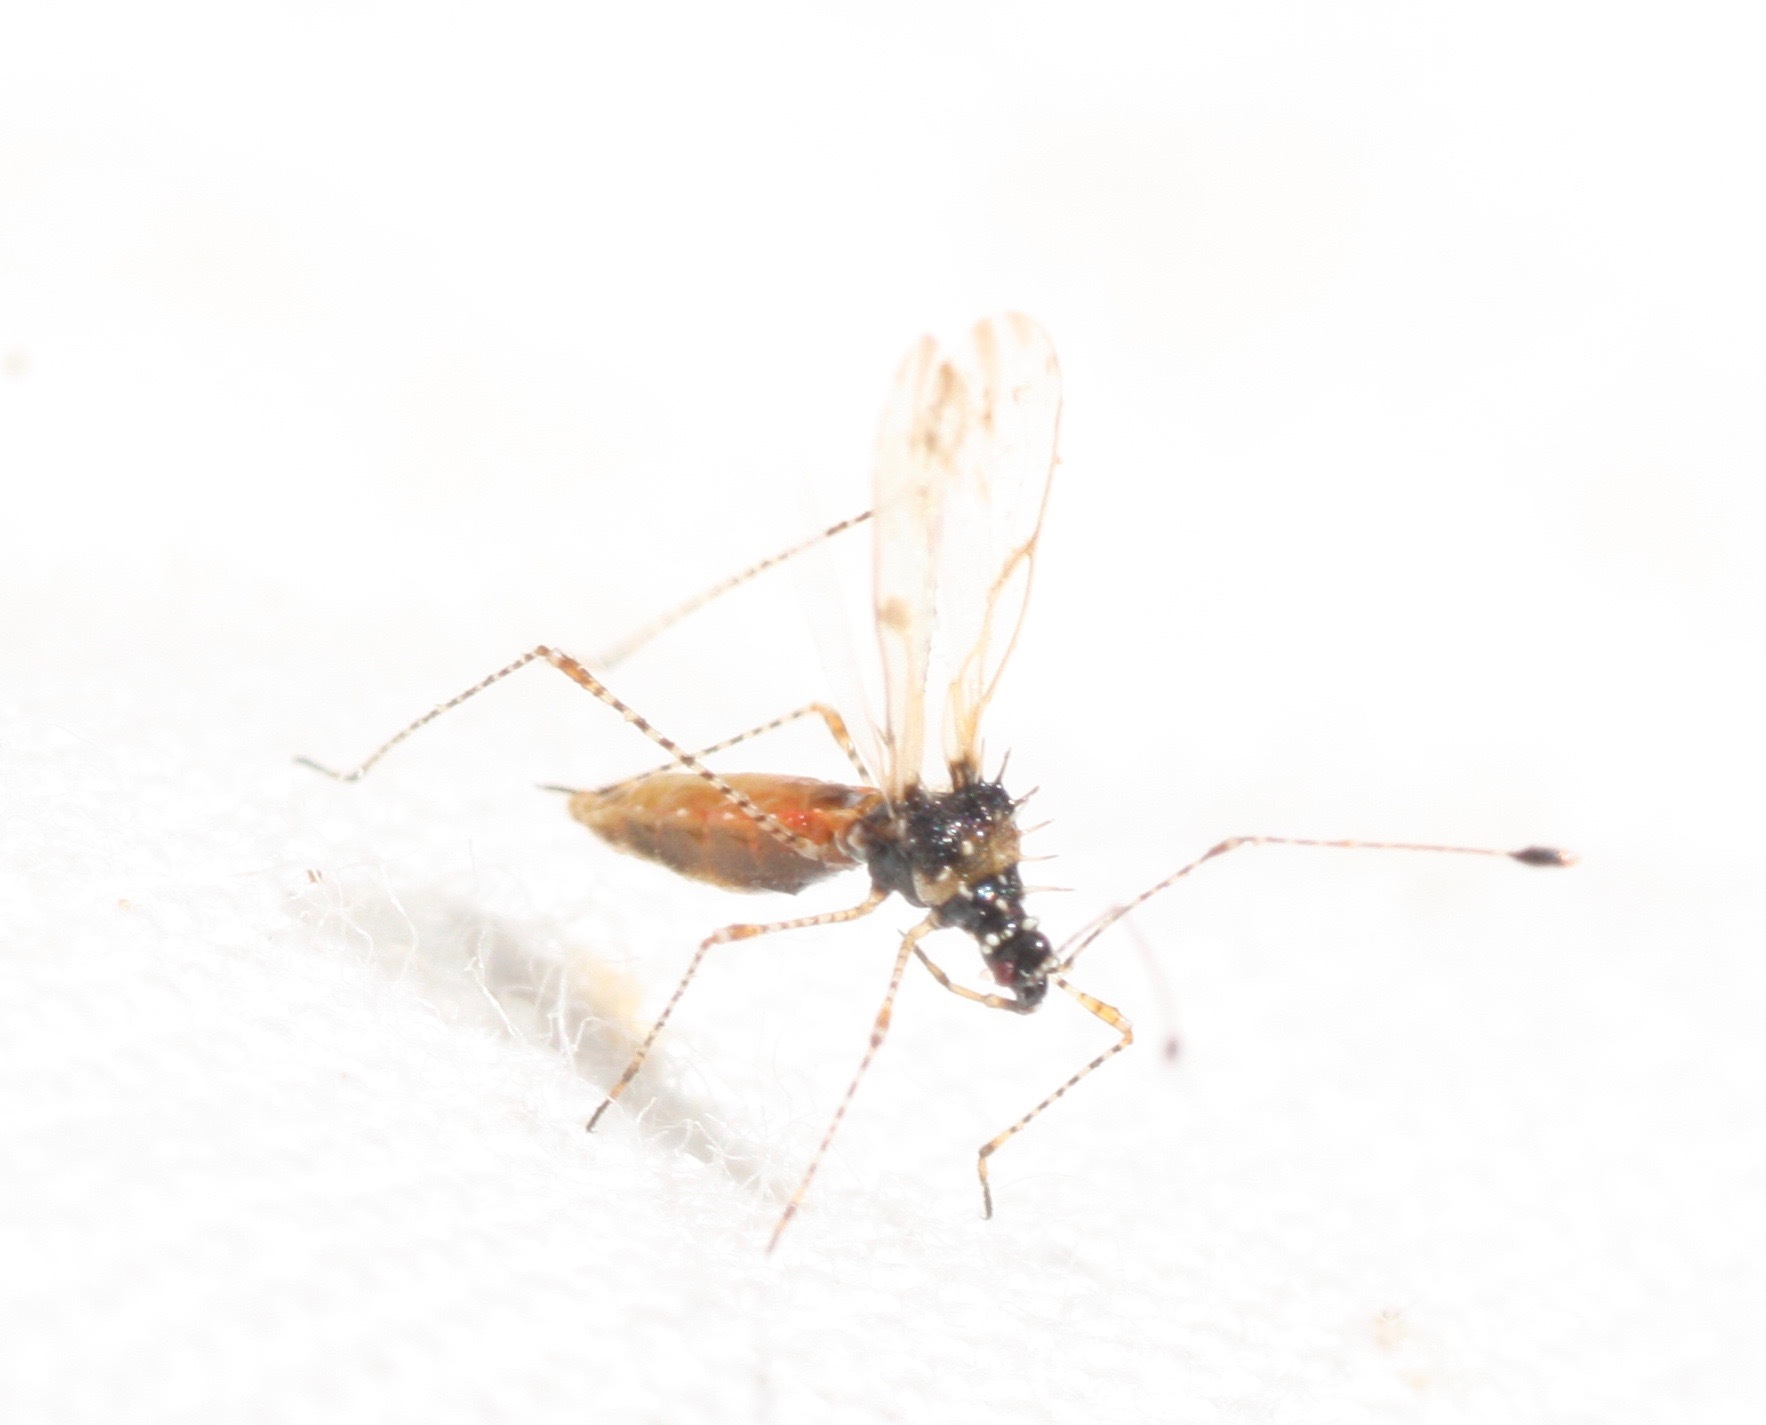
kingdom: Animalia
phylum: Arthropoda
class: Insecta
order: Hemiptera
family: Berytidae
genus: Pronotacantha
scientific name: Pronotacantha annulata
